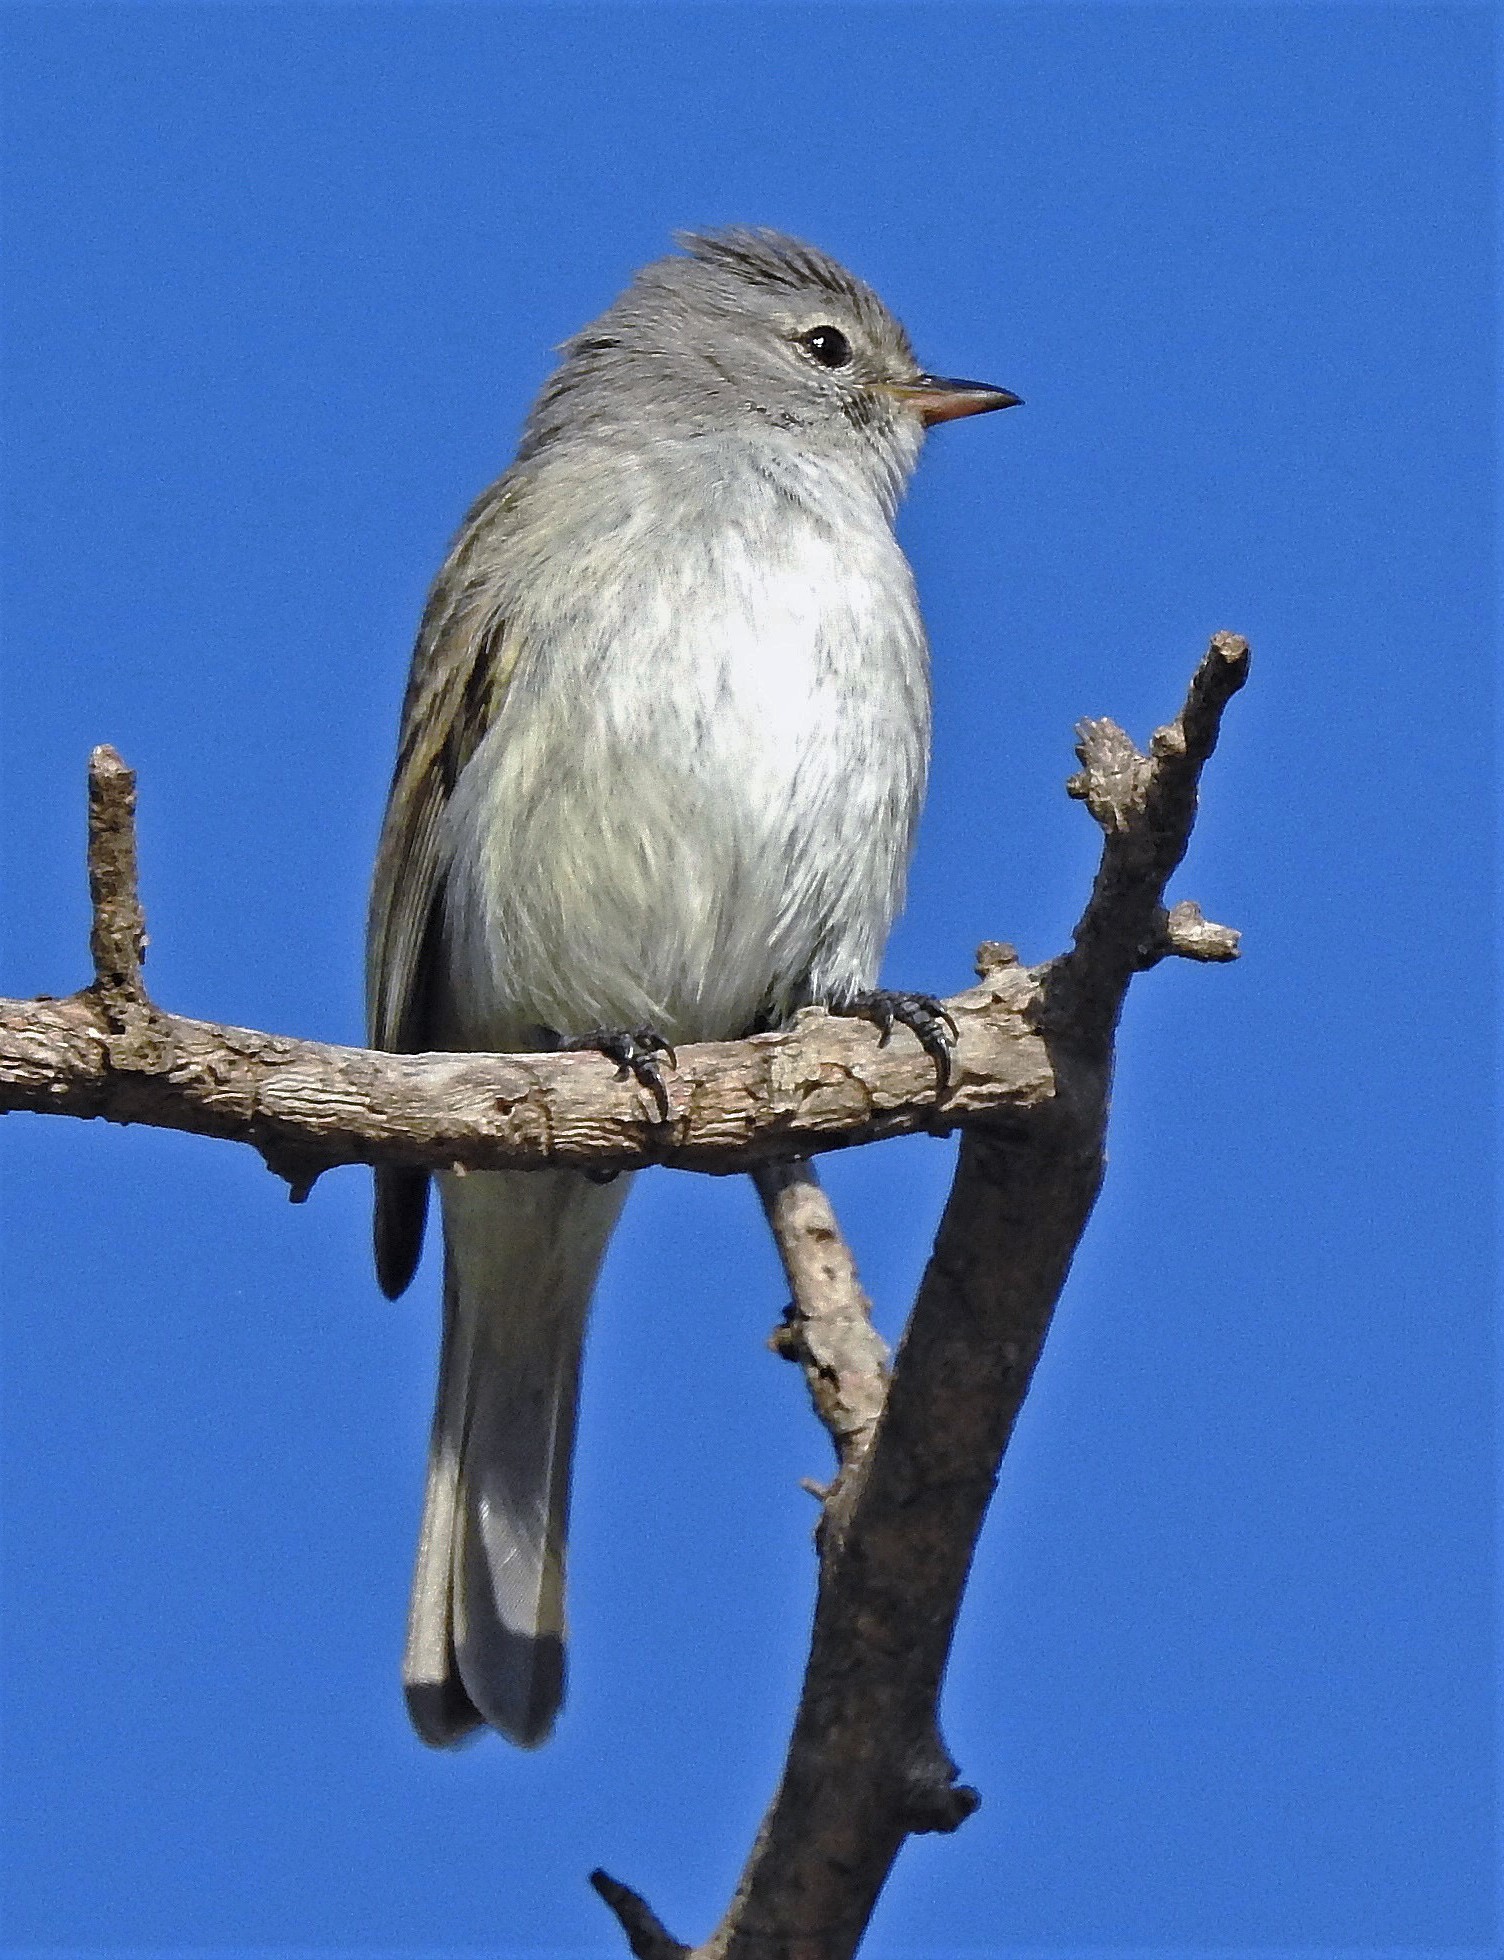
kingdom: Animalia
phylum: Chordata
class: Aves
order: Passeriformes
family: Tyrannidae
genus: Camptostoma
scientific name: Camptostoma obsoletum
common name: Southern beardless-tyrannulet
